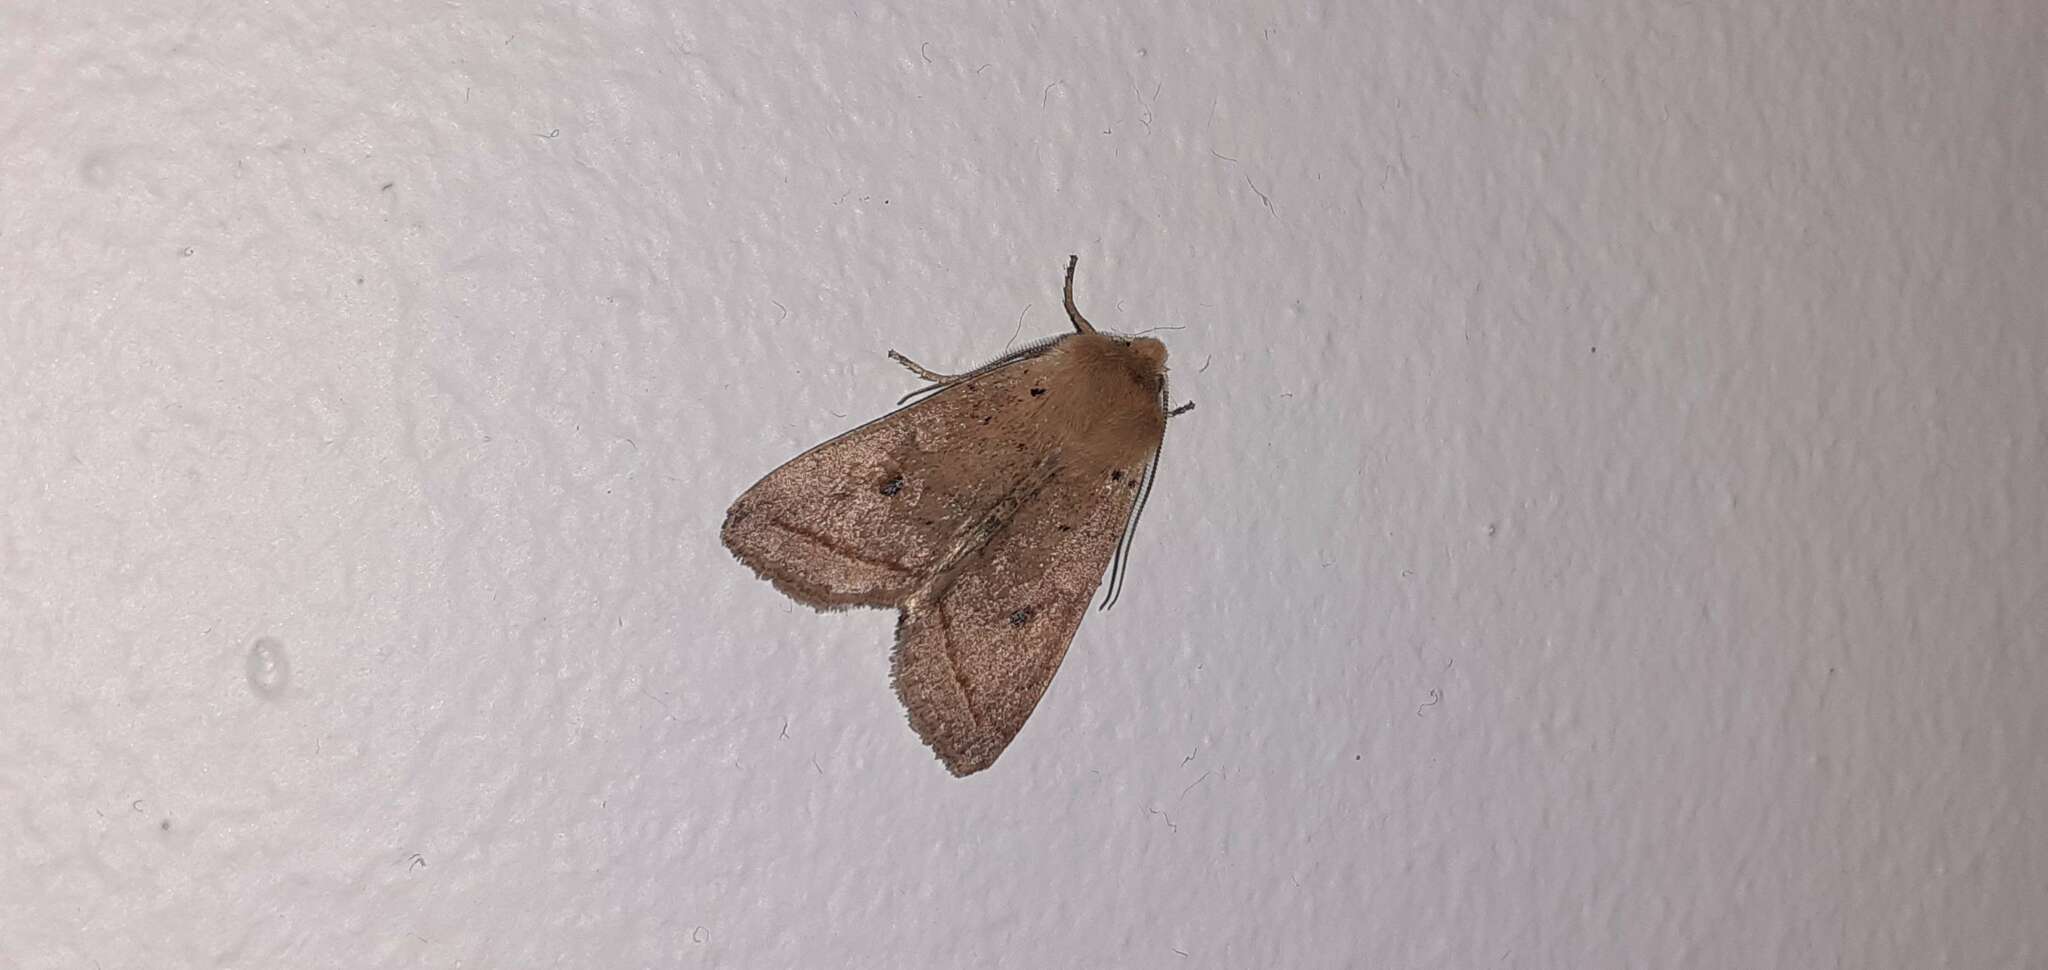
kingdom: Animalia
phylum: Arthropoda
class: Insecta
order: Lepidoptera
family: Noctuidae
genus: Agrochola
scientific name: Agrochola macilenta
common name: Yellow-line quaker
